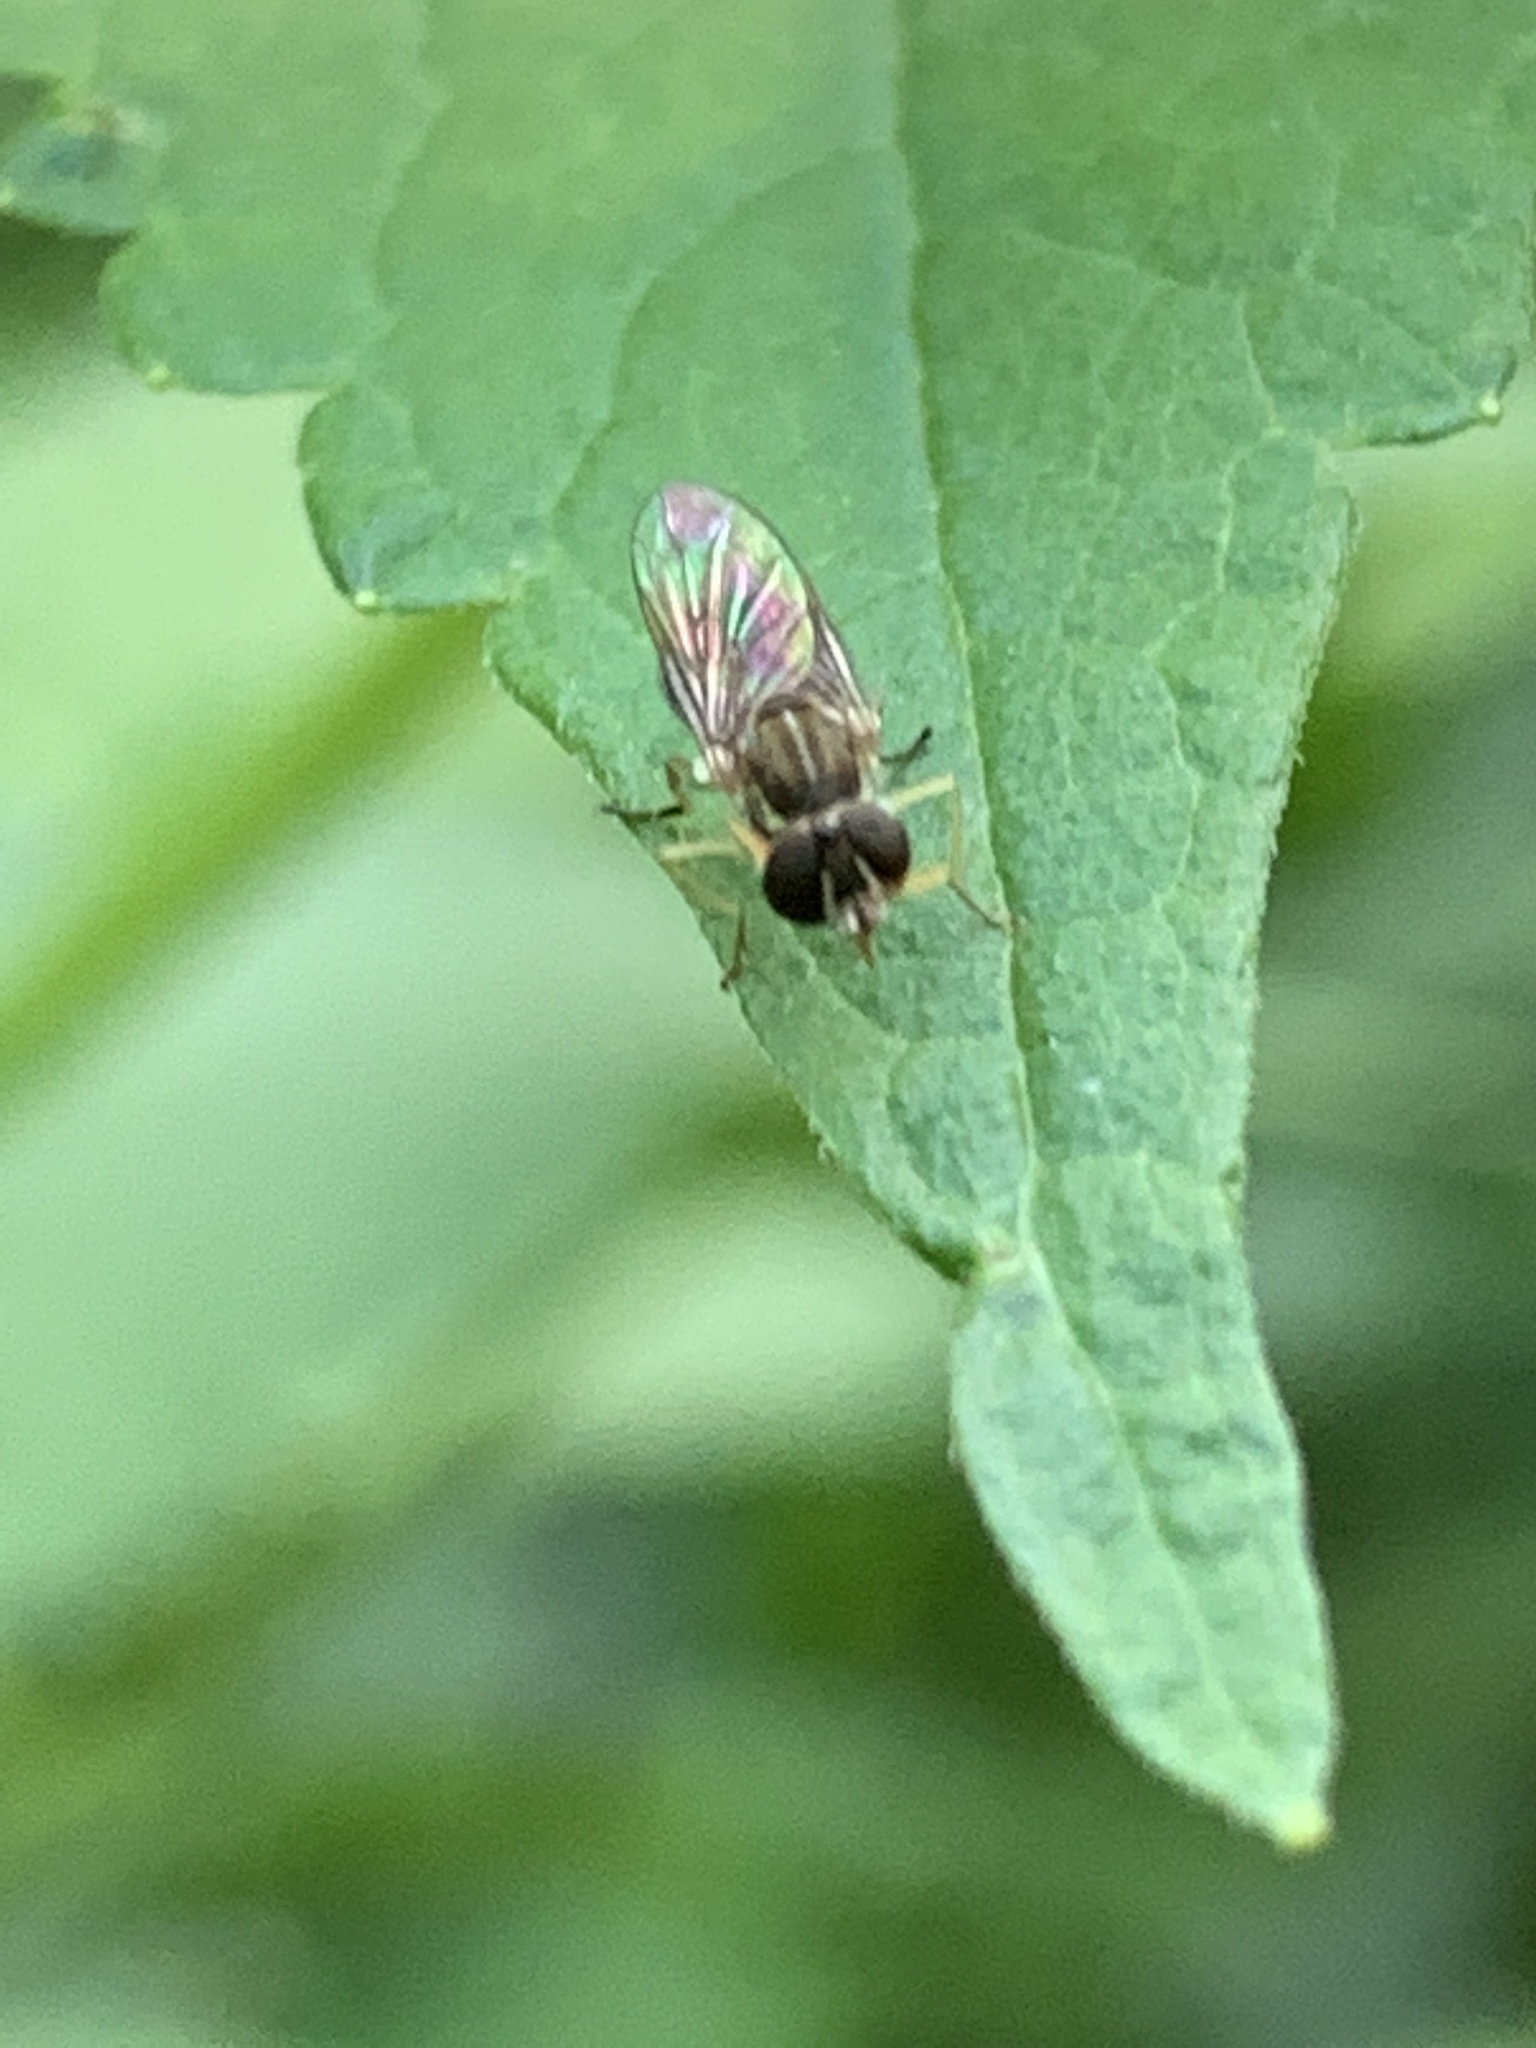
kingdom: Animalia
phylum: Arthropoda
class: Insecta
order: Diptera
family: Syrphidae
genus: Toxomerus
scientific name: Toxomerus
